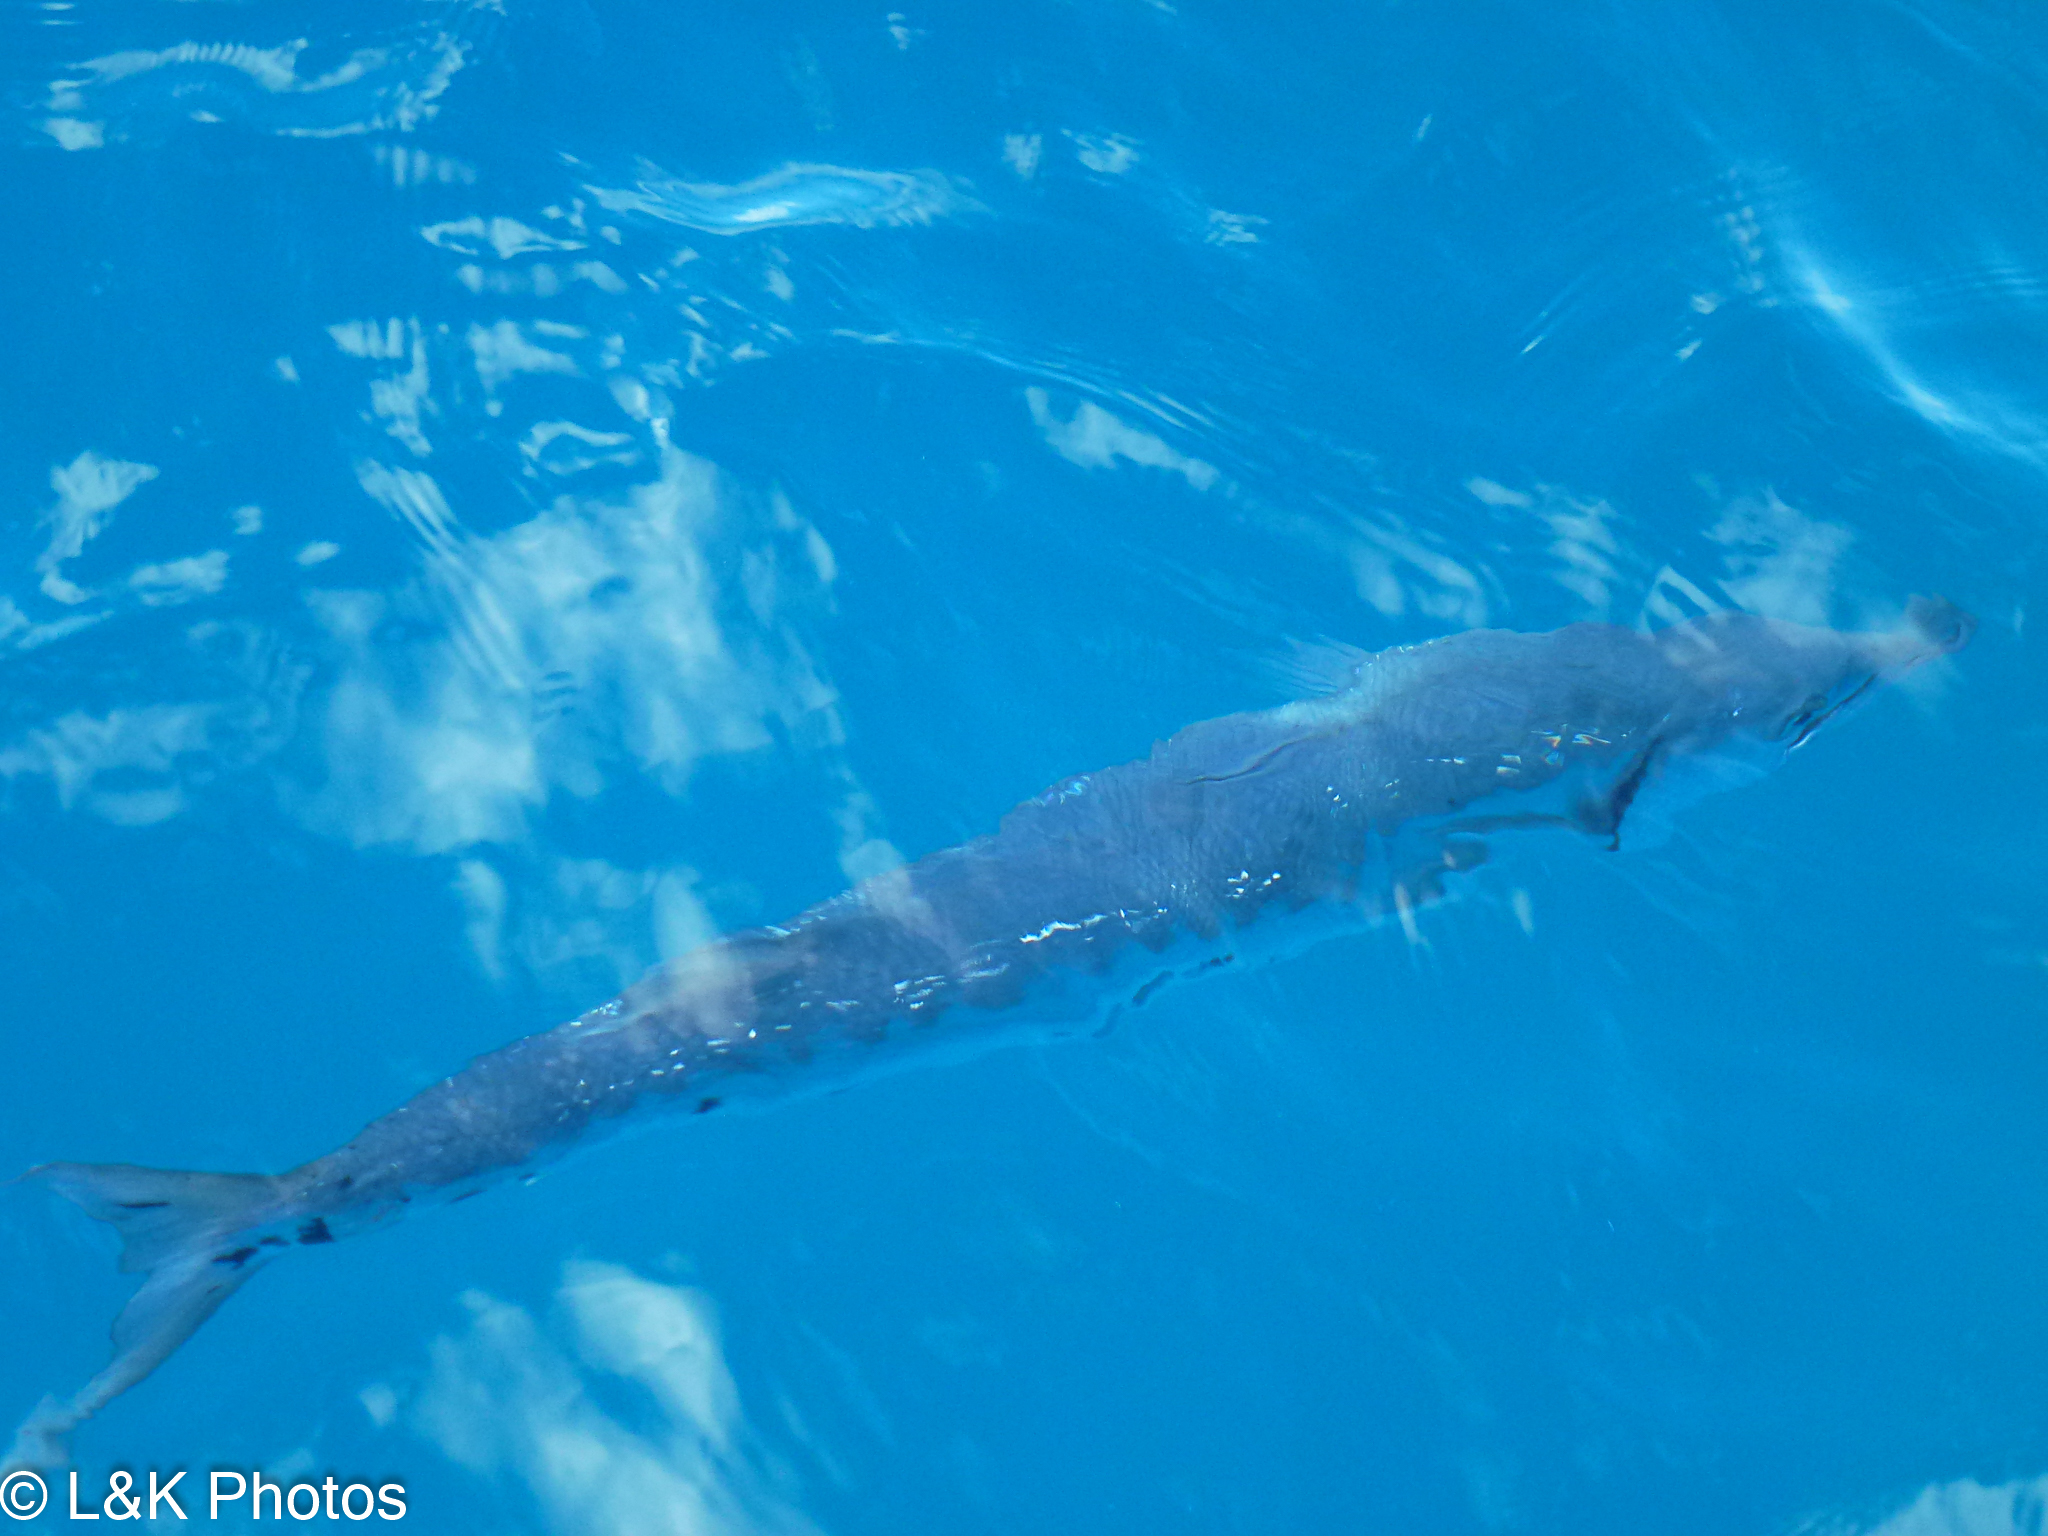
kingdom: Animalia
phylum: Chordata
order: Perciformes
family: Sphyraenidae
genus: Sphyraena
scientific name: Sphyraena barracuda
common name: Great barracuda
